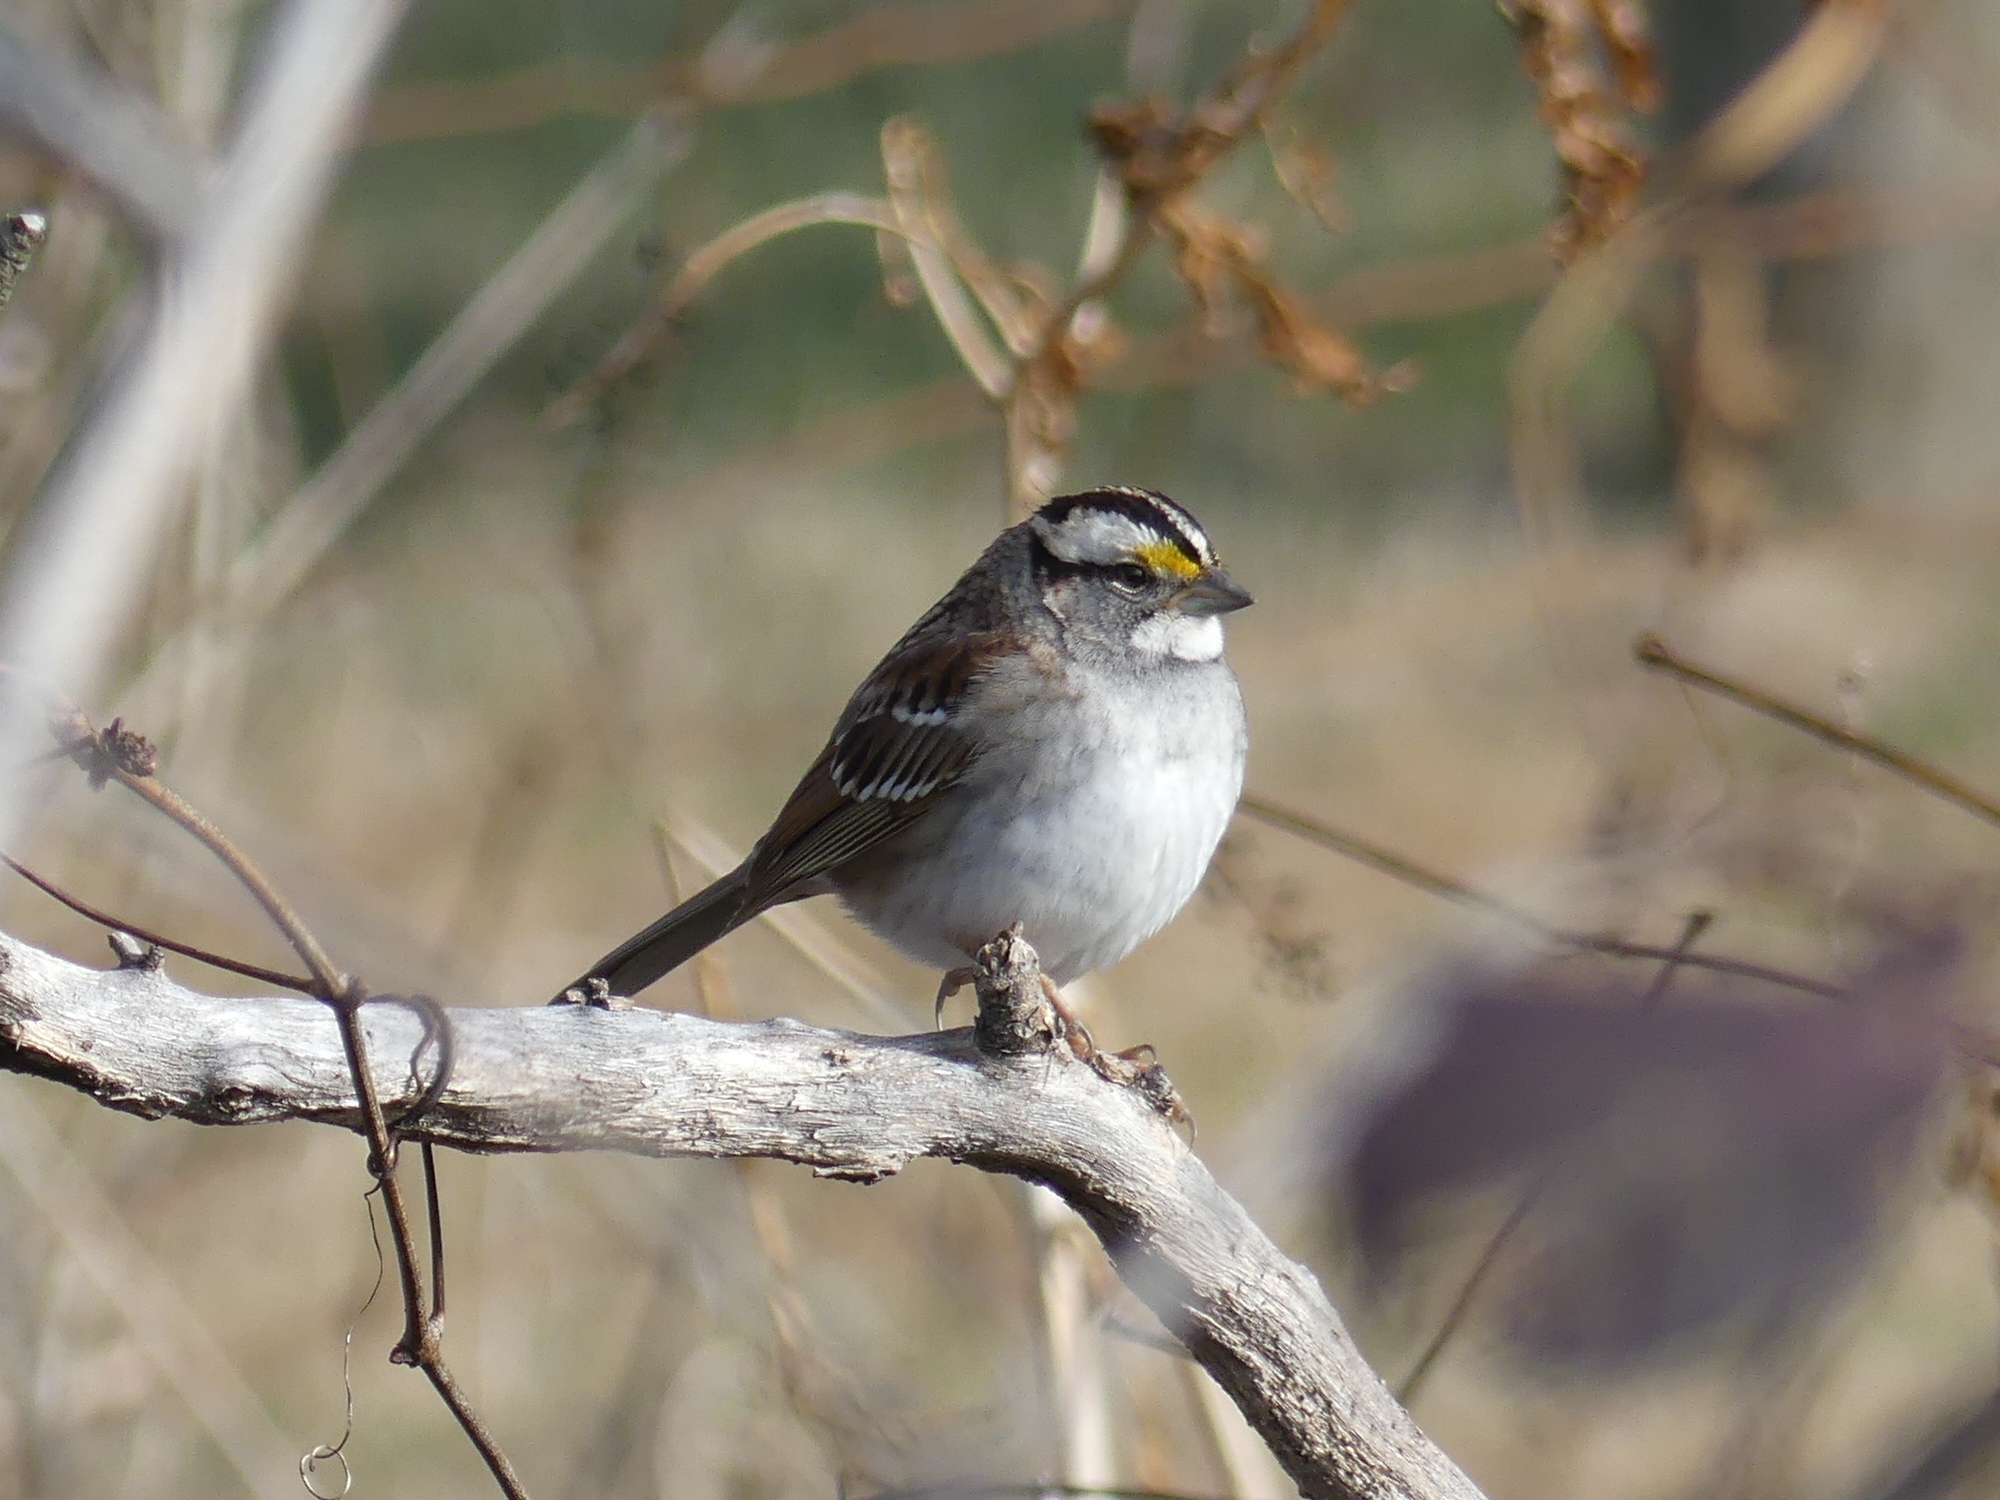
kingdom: Animalia
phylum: Chordata
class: Aves
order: Passeriformes
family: Passerellidae
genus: Zonotrichia
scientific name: Zonotrichia albicollis
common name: White-throated sparrow
